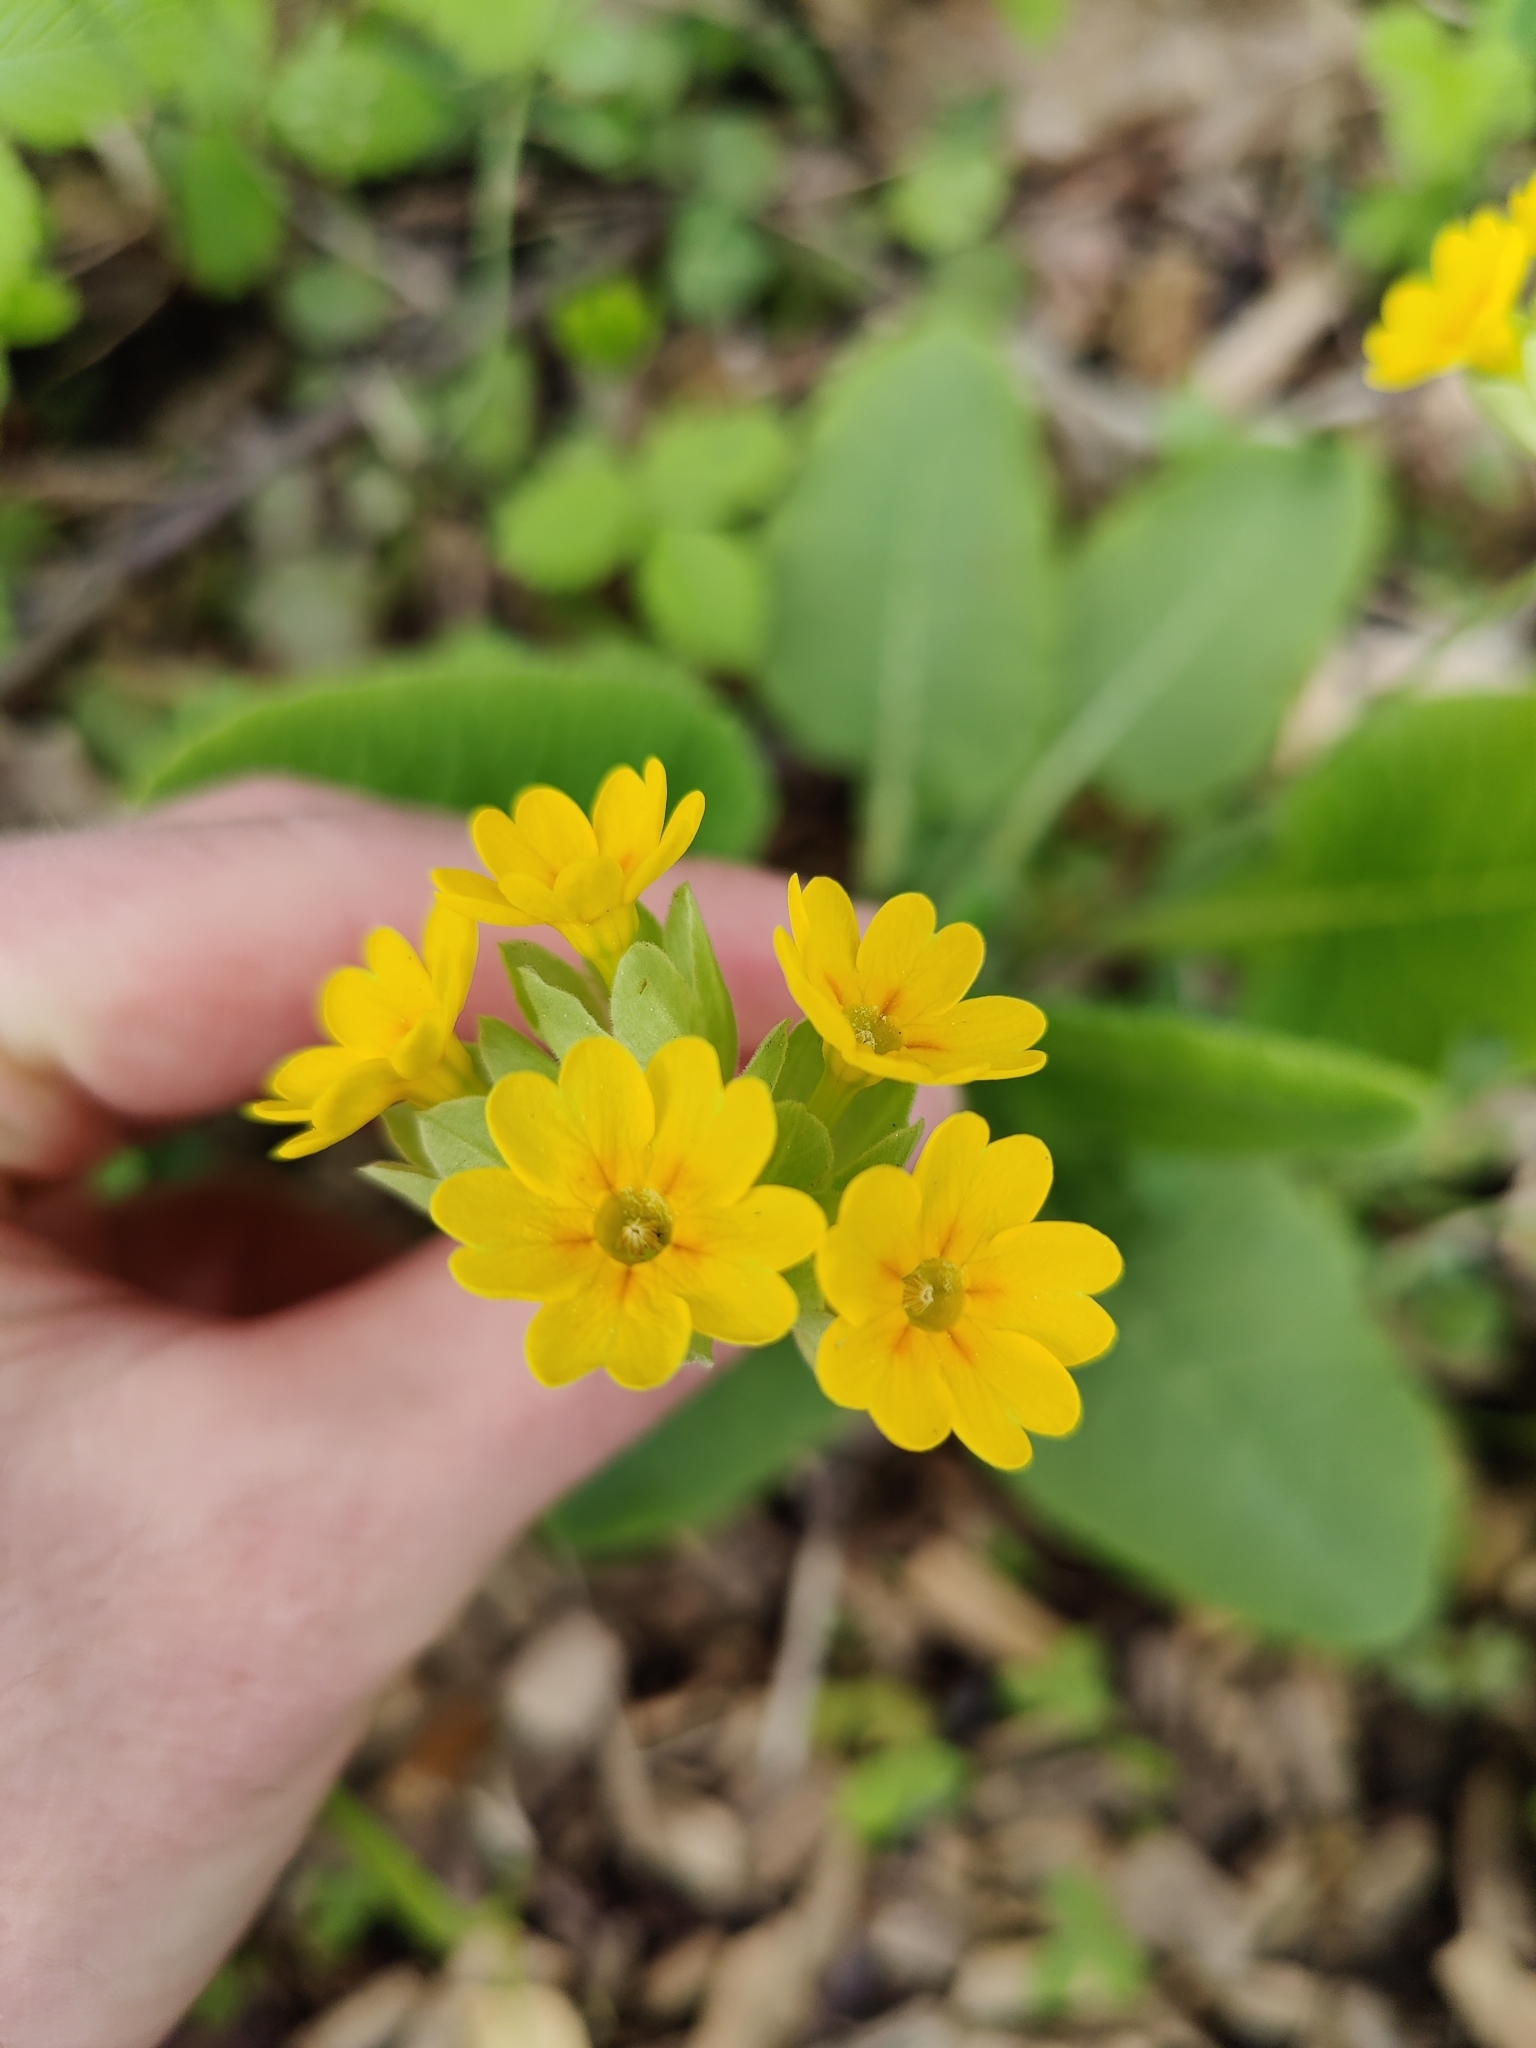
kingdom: Plantae
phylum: Tracheophyta
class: Magnoliopsida
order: Ericales
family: Primulaceae
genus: Primula
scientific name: Primula veris
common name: Cowslip
